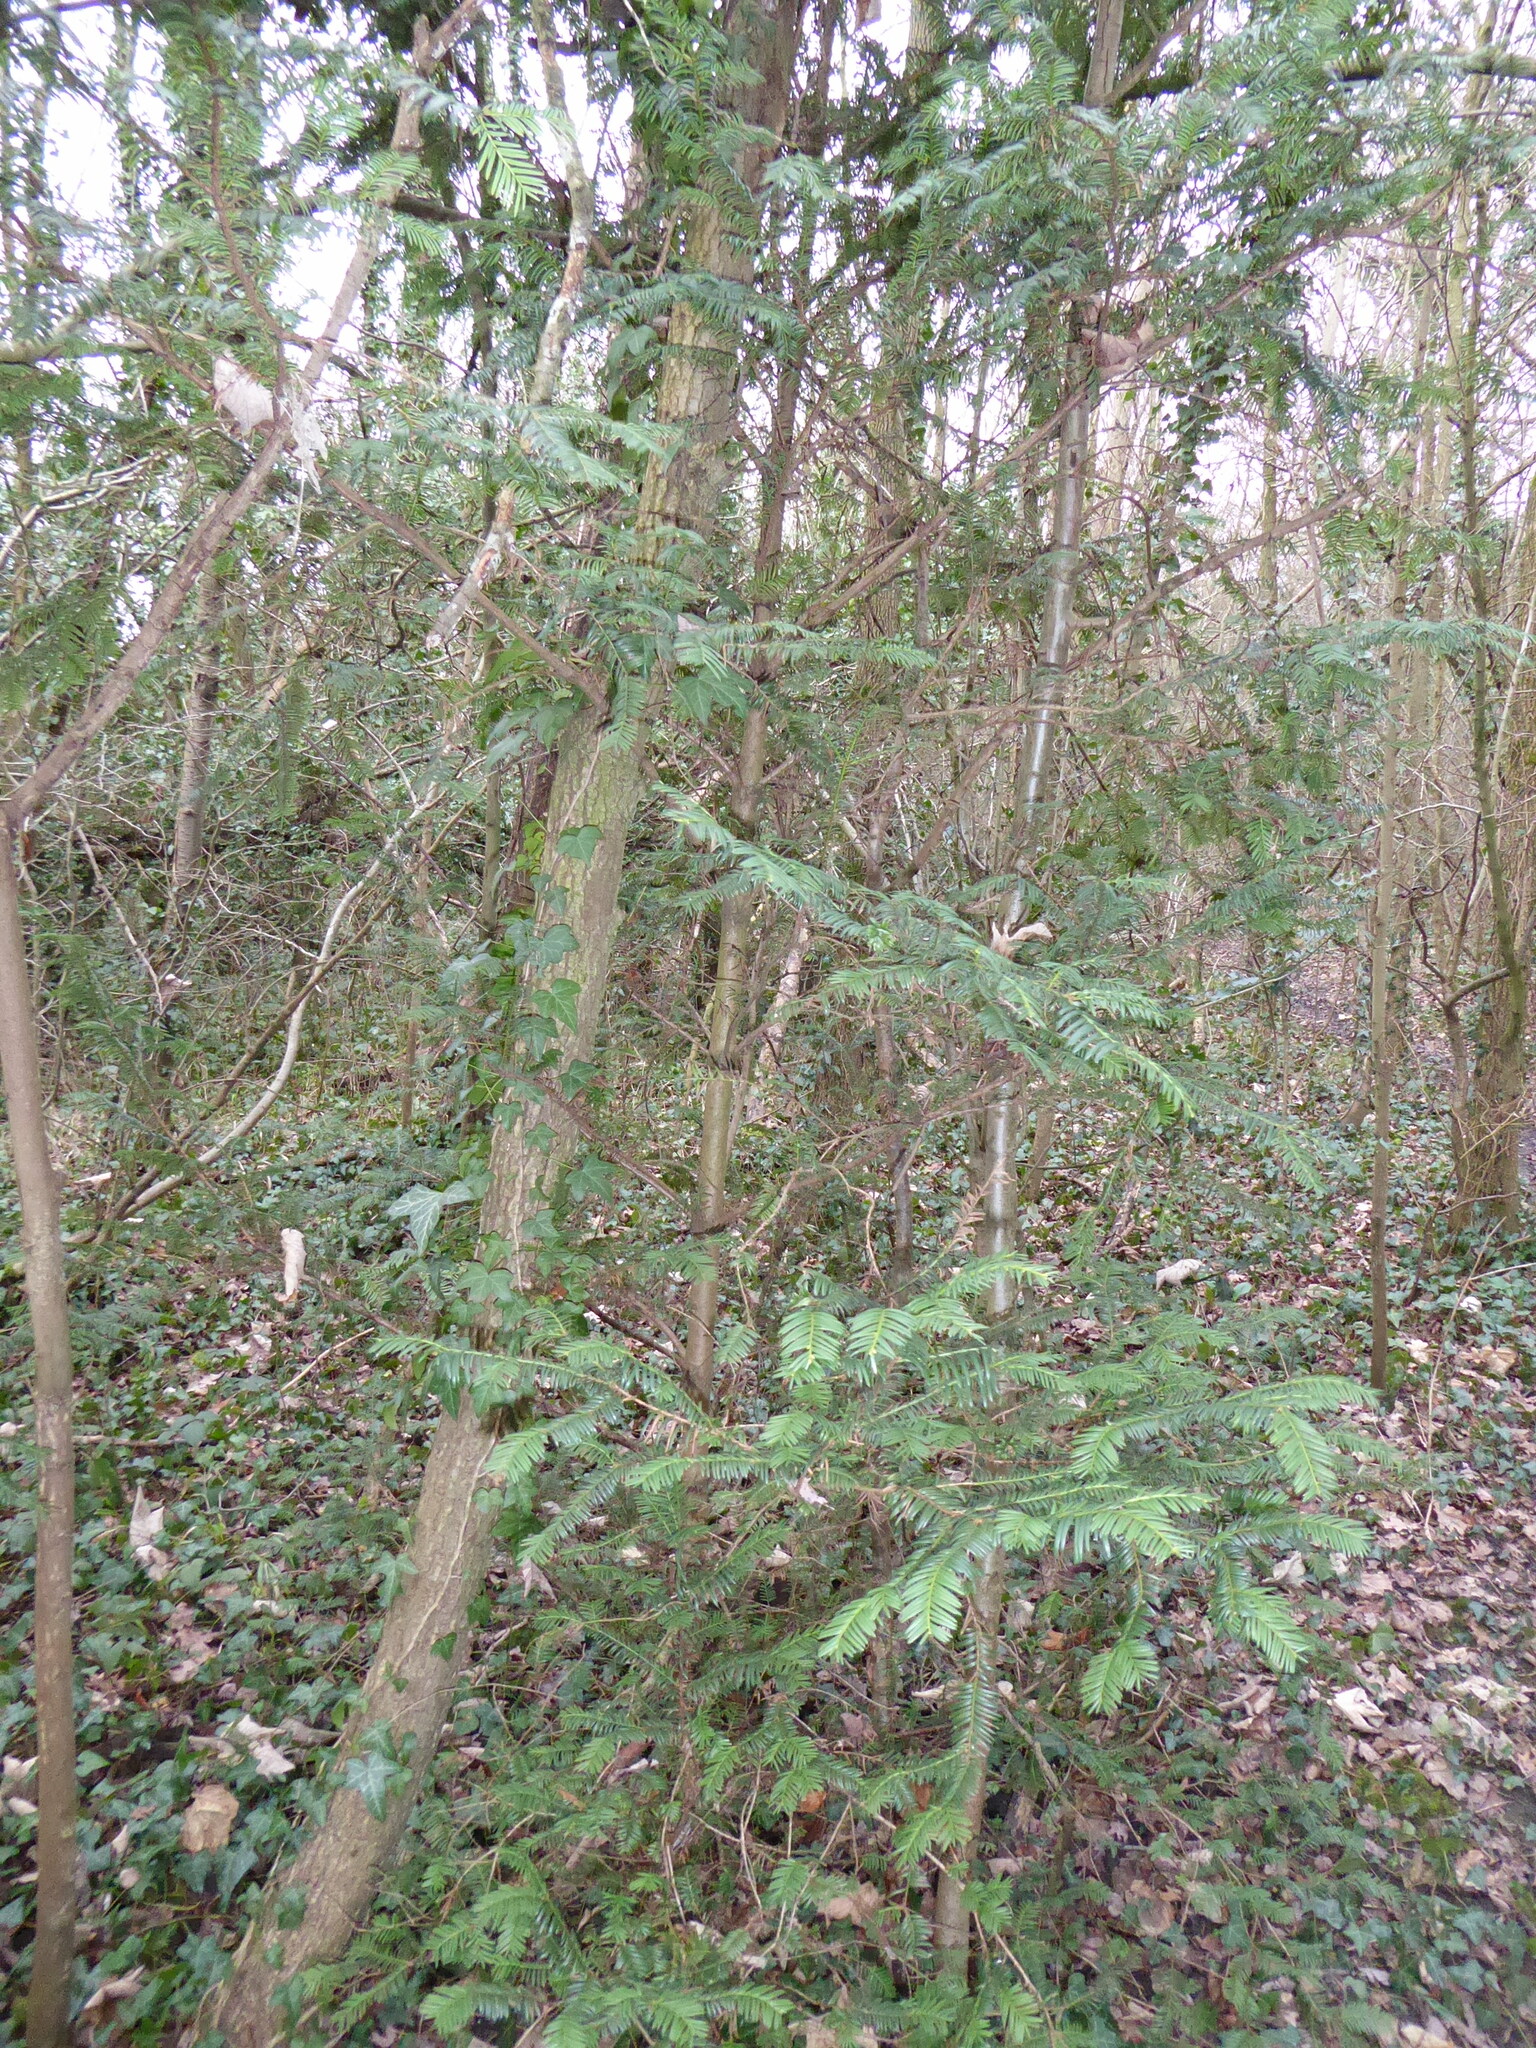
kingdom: Plantae
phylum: Tracheophyta
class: Pinopsida
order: Pinales
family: Taxaceae
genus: Taxus
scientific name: Taxus baccata
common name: Yew
